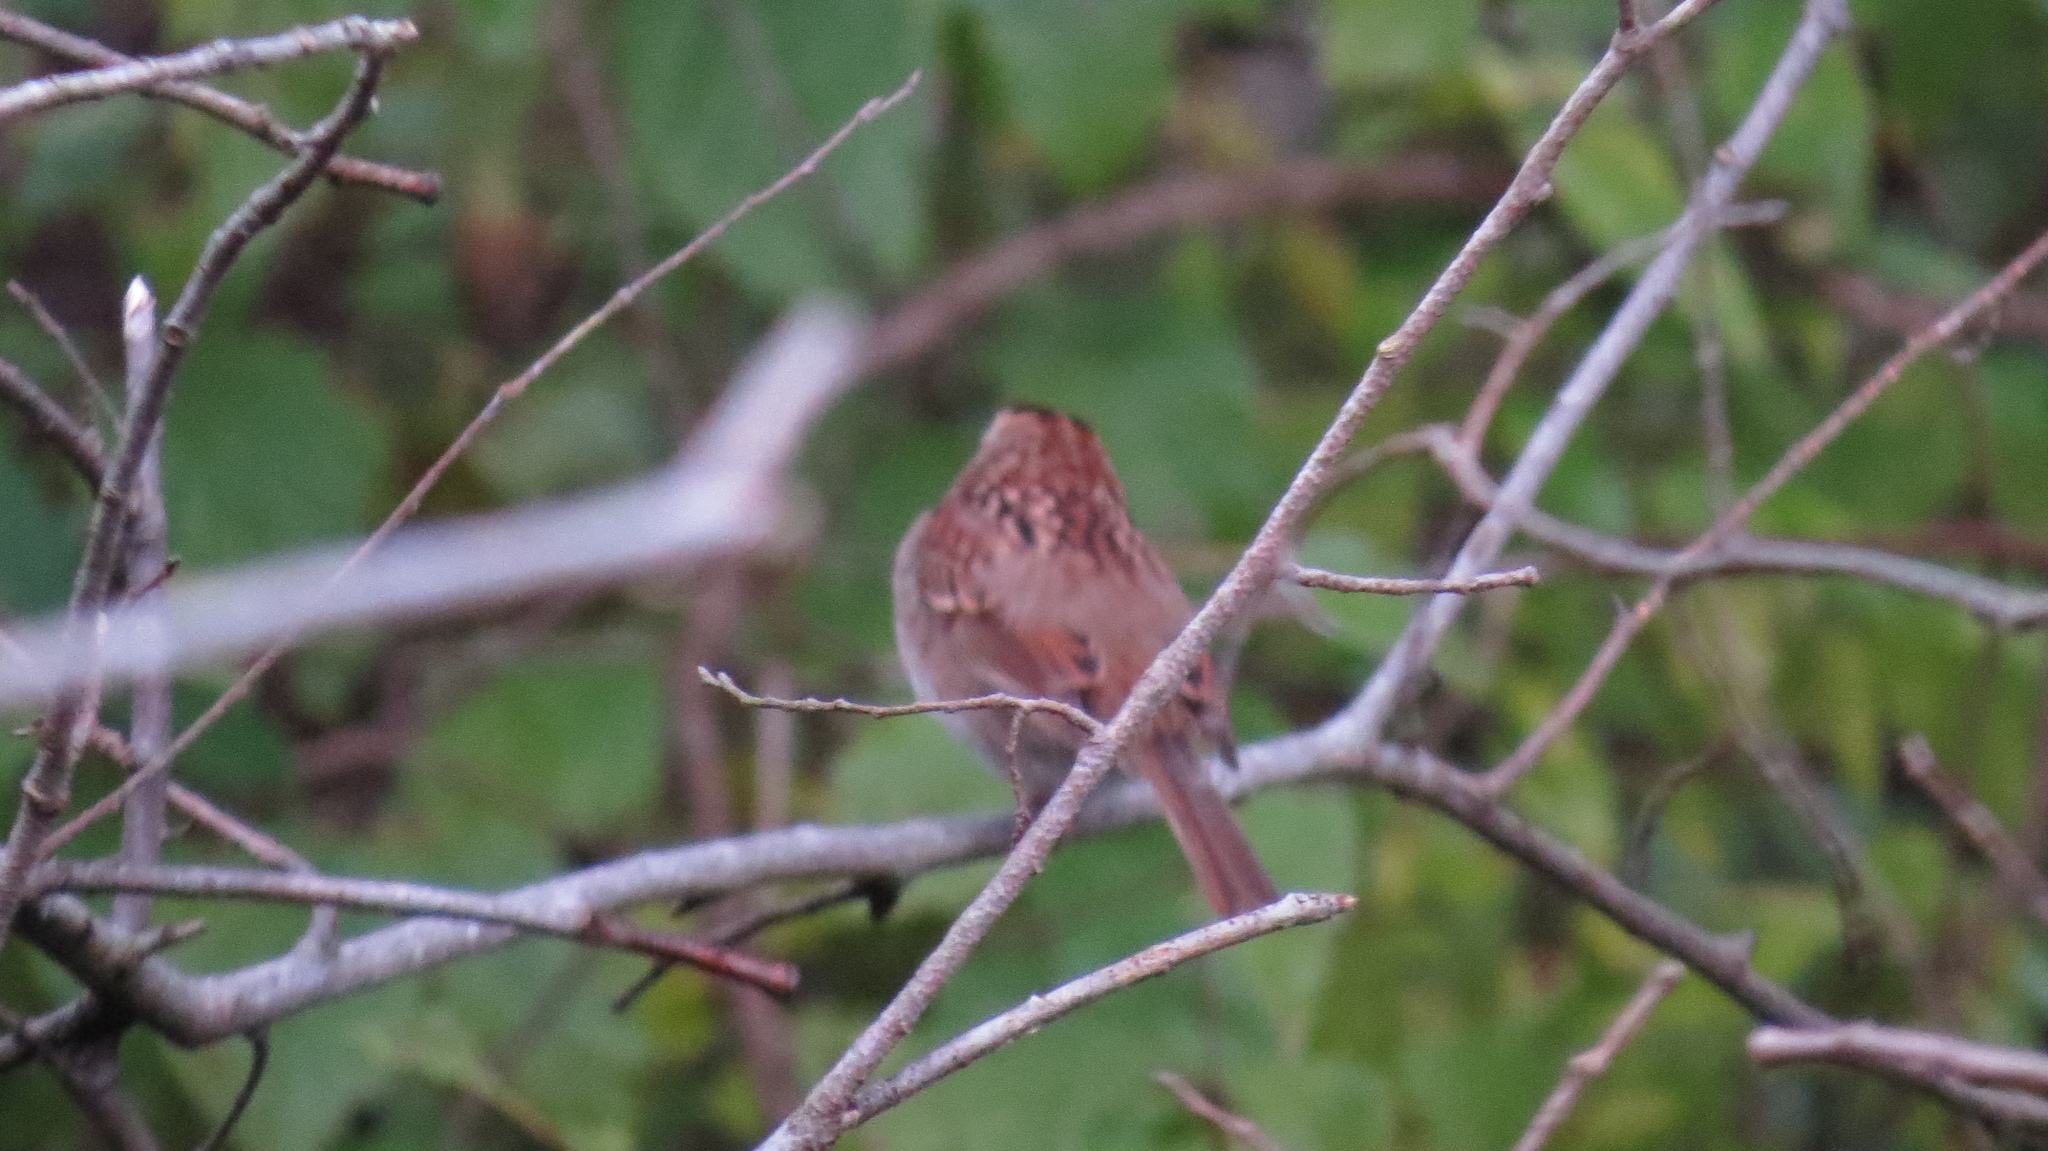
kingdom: Animalia
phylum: Chordata
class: Aves
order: Passeriformes
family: Passerellidae
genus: Zonotrichia
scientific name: Zonotrichia albicollis
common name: White-throated sparrow
